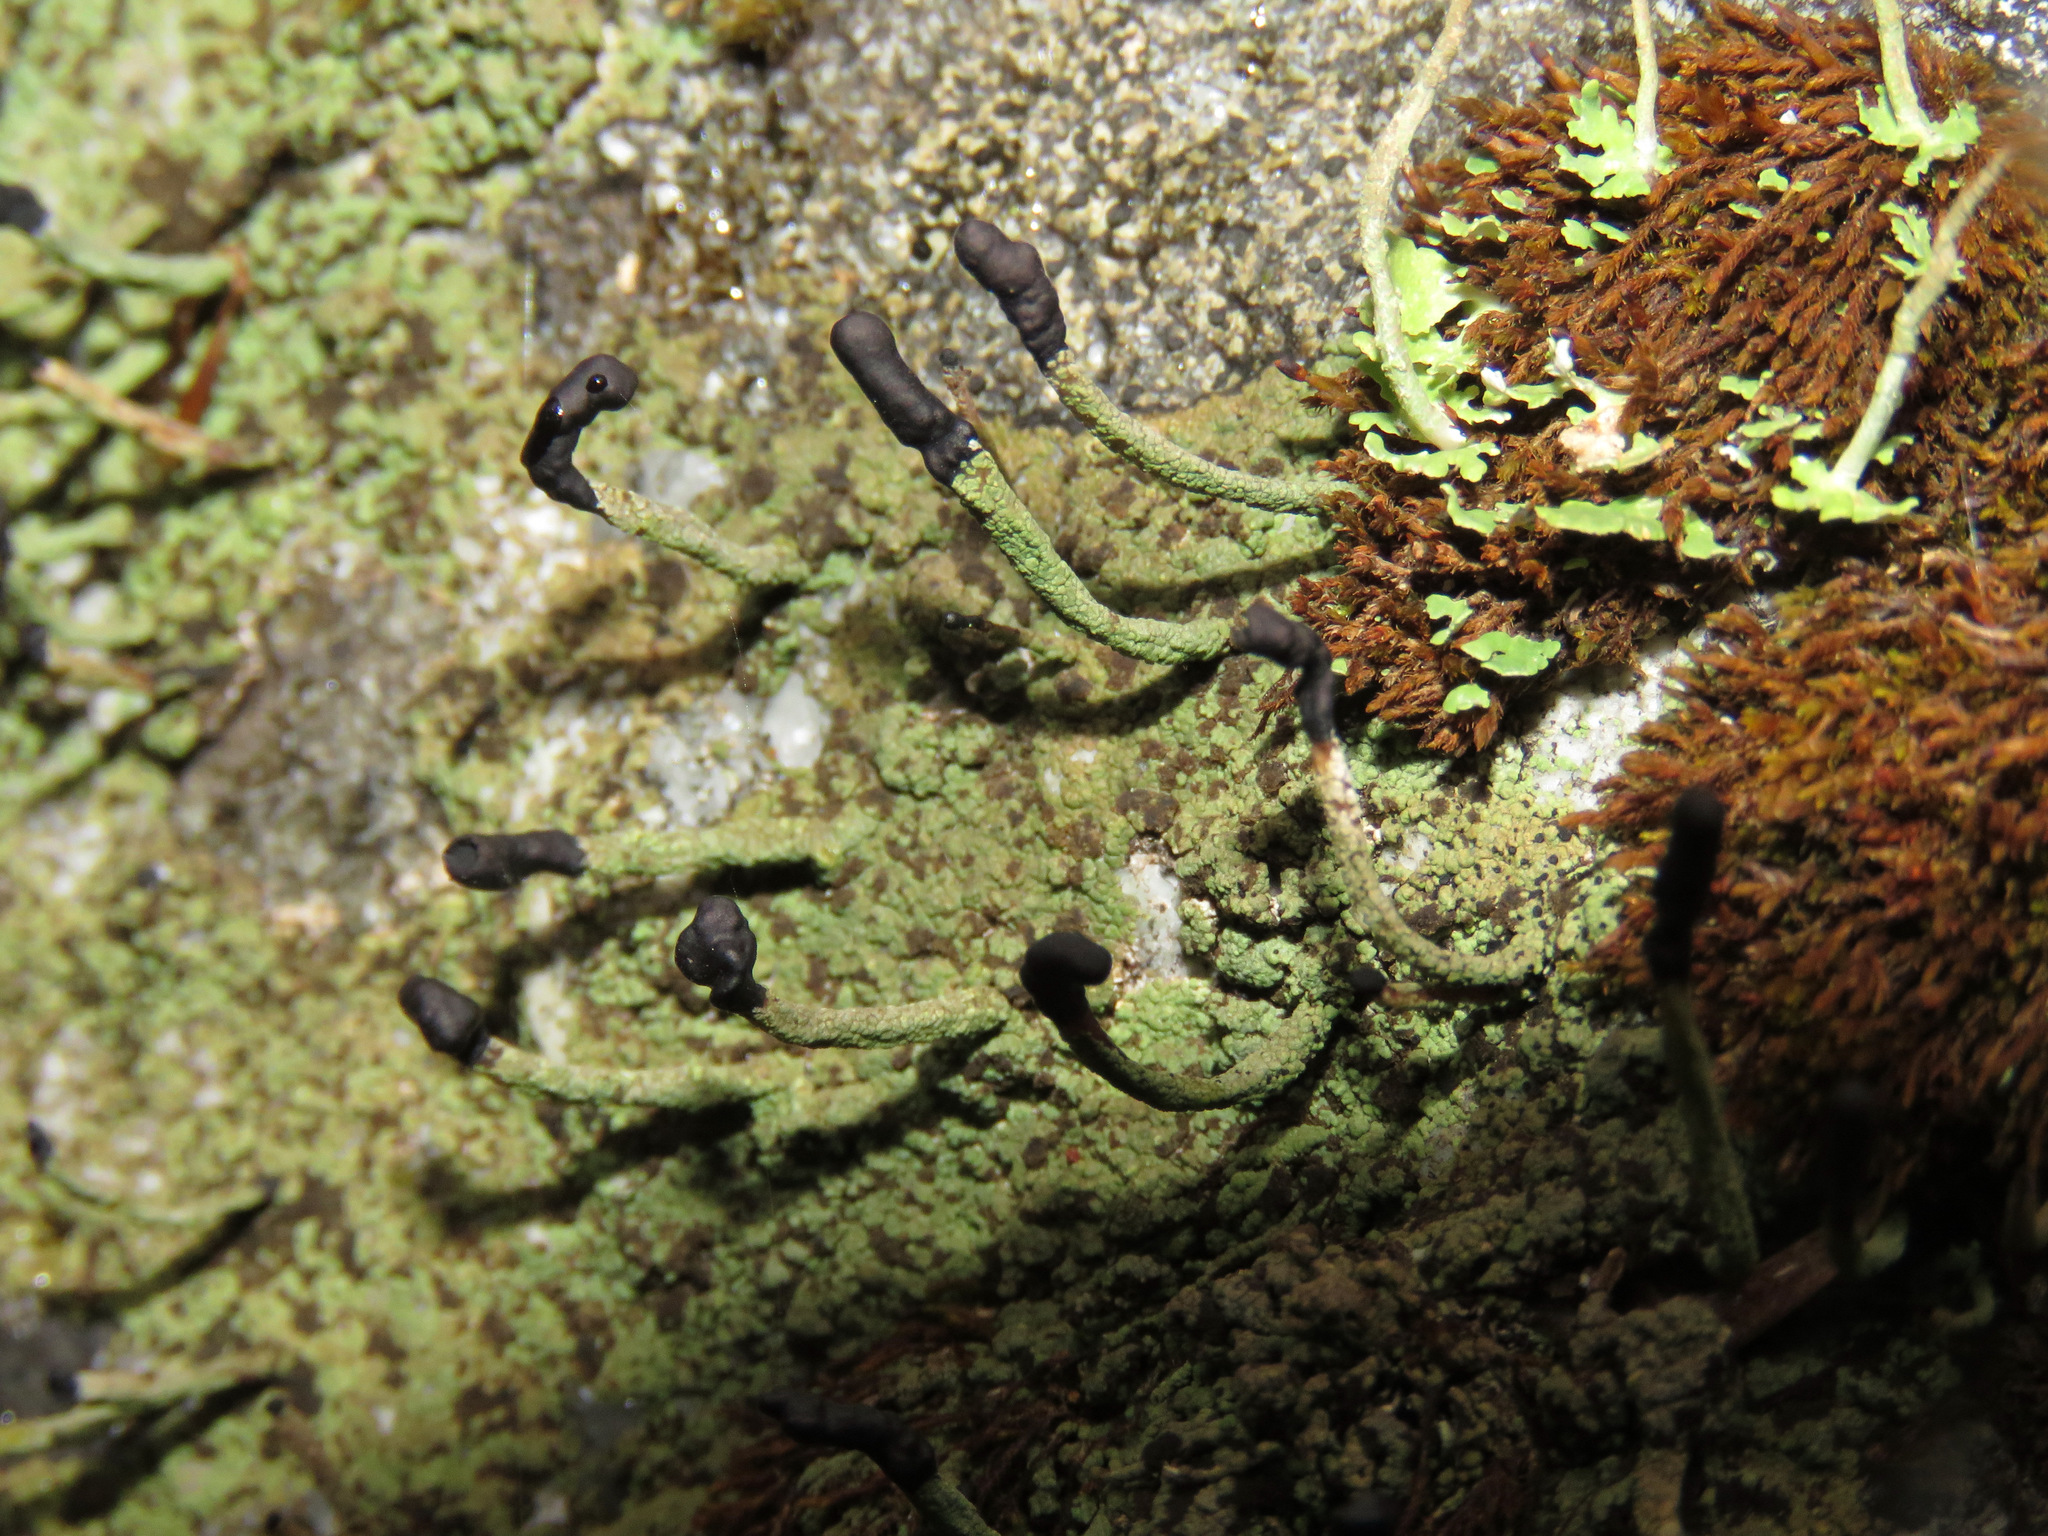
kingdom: Fungi
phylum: Ascomycota
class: Lecanoromycetes
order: Lecanorales
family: Cladoniaceae
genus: Pilophorus
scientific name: Pilophorus clavatus
